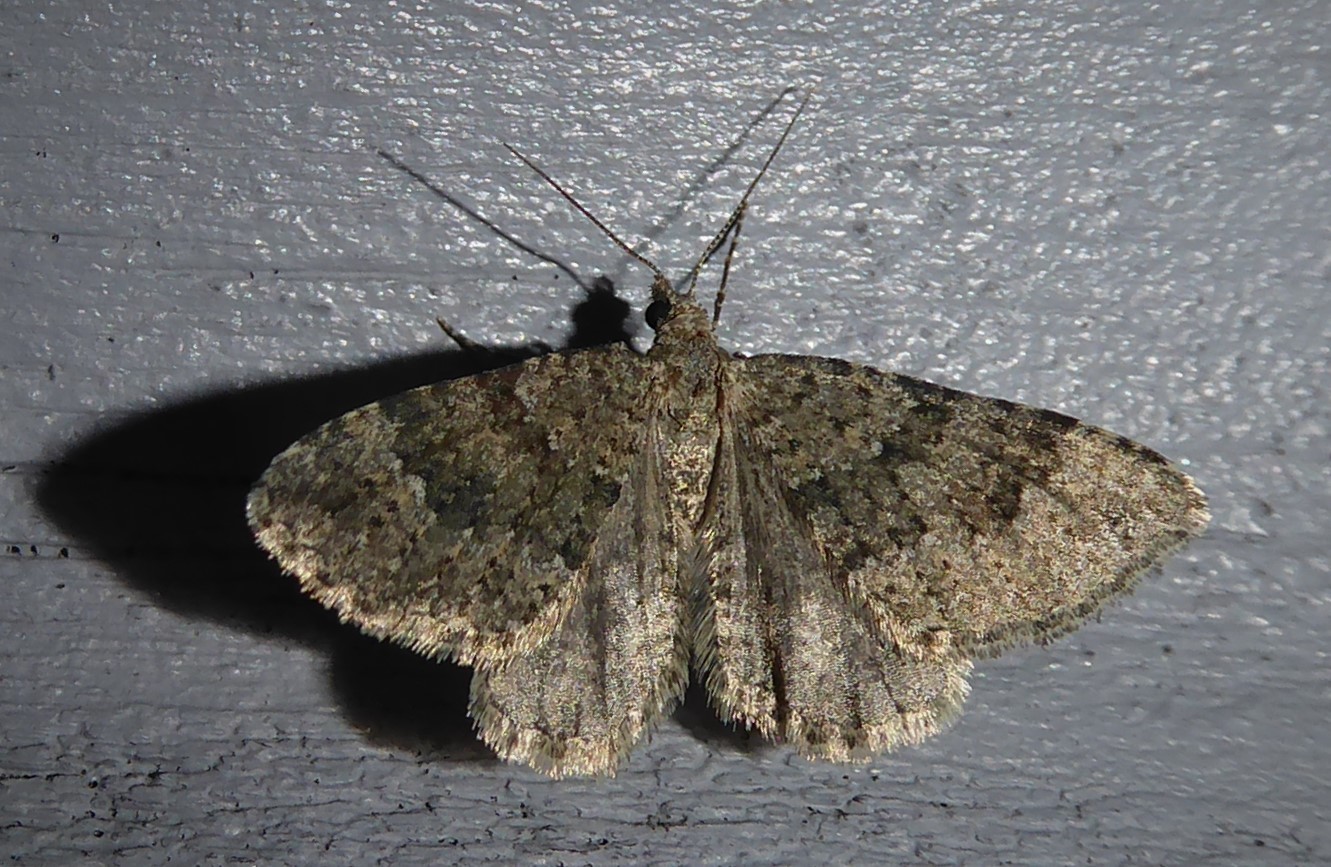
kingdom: Animalia
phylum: Arthropoda
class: Insecta
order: Lepidoptera
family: Geometridae
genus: Helastia
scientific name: Helastia corcularia
